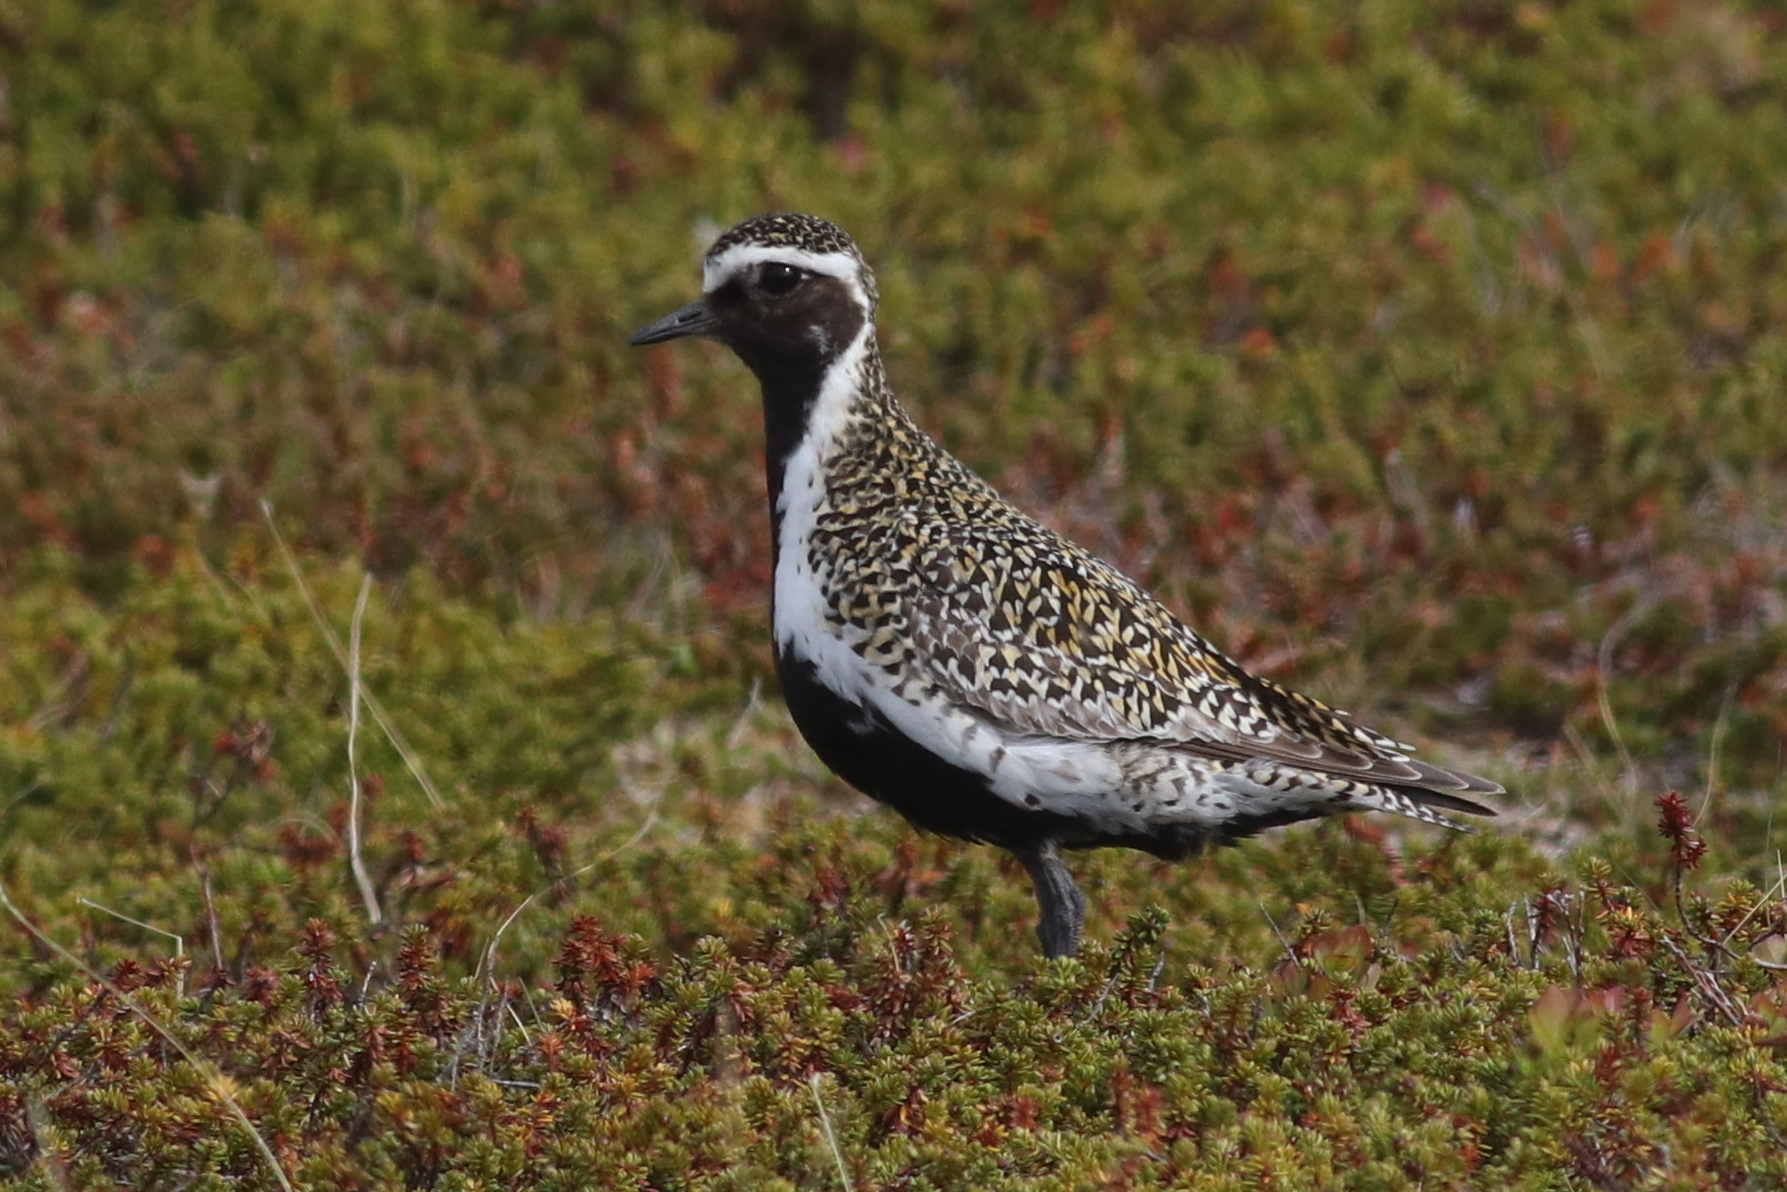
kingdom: Animalia
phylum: Chordata
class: Aves
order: Charadriiformes
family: Charadriidae
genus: Pluvialis
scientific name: Pluvialis apricaria
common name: European golden plover
